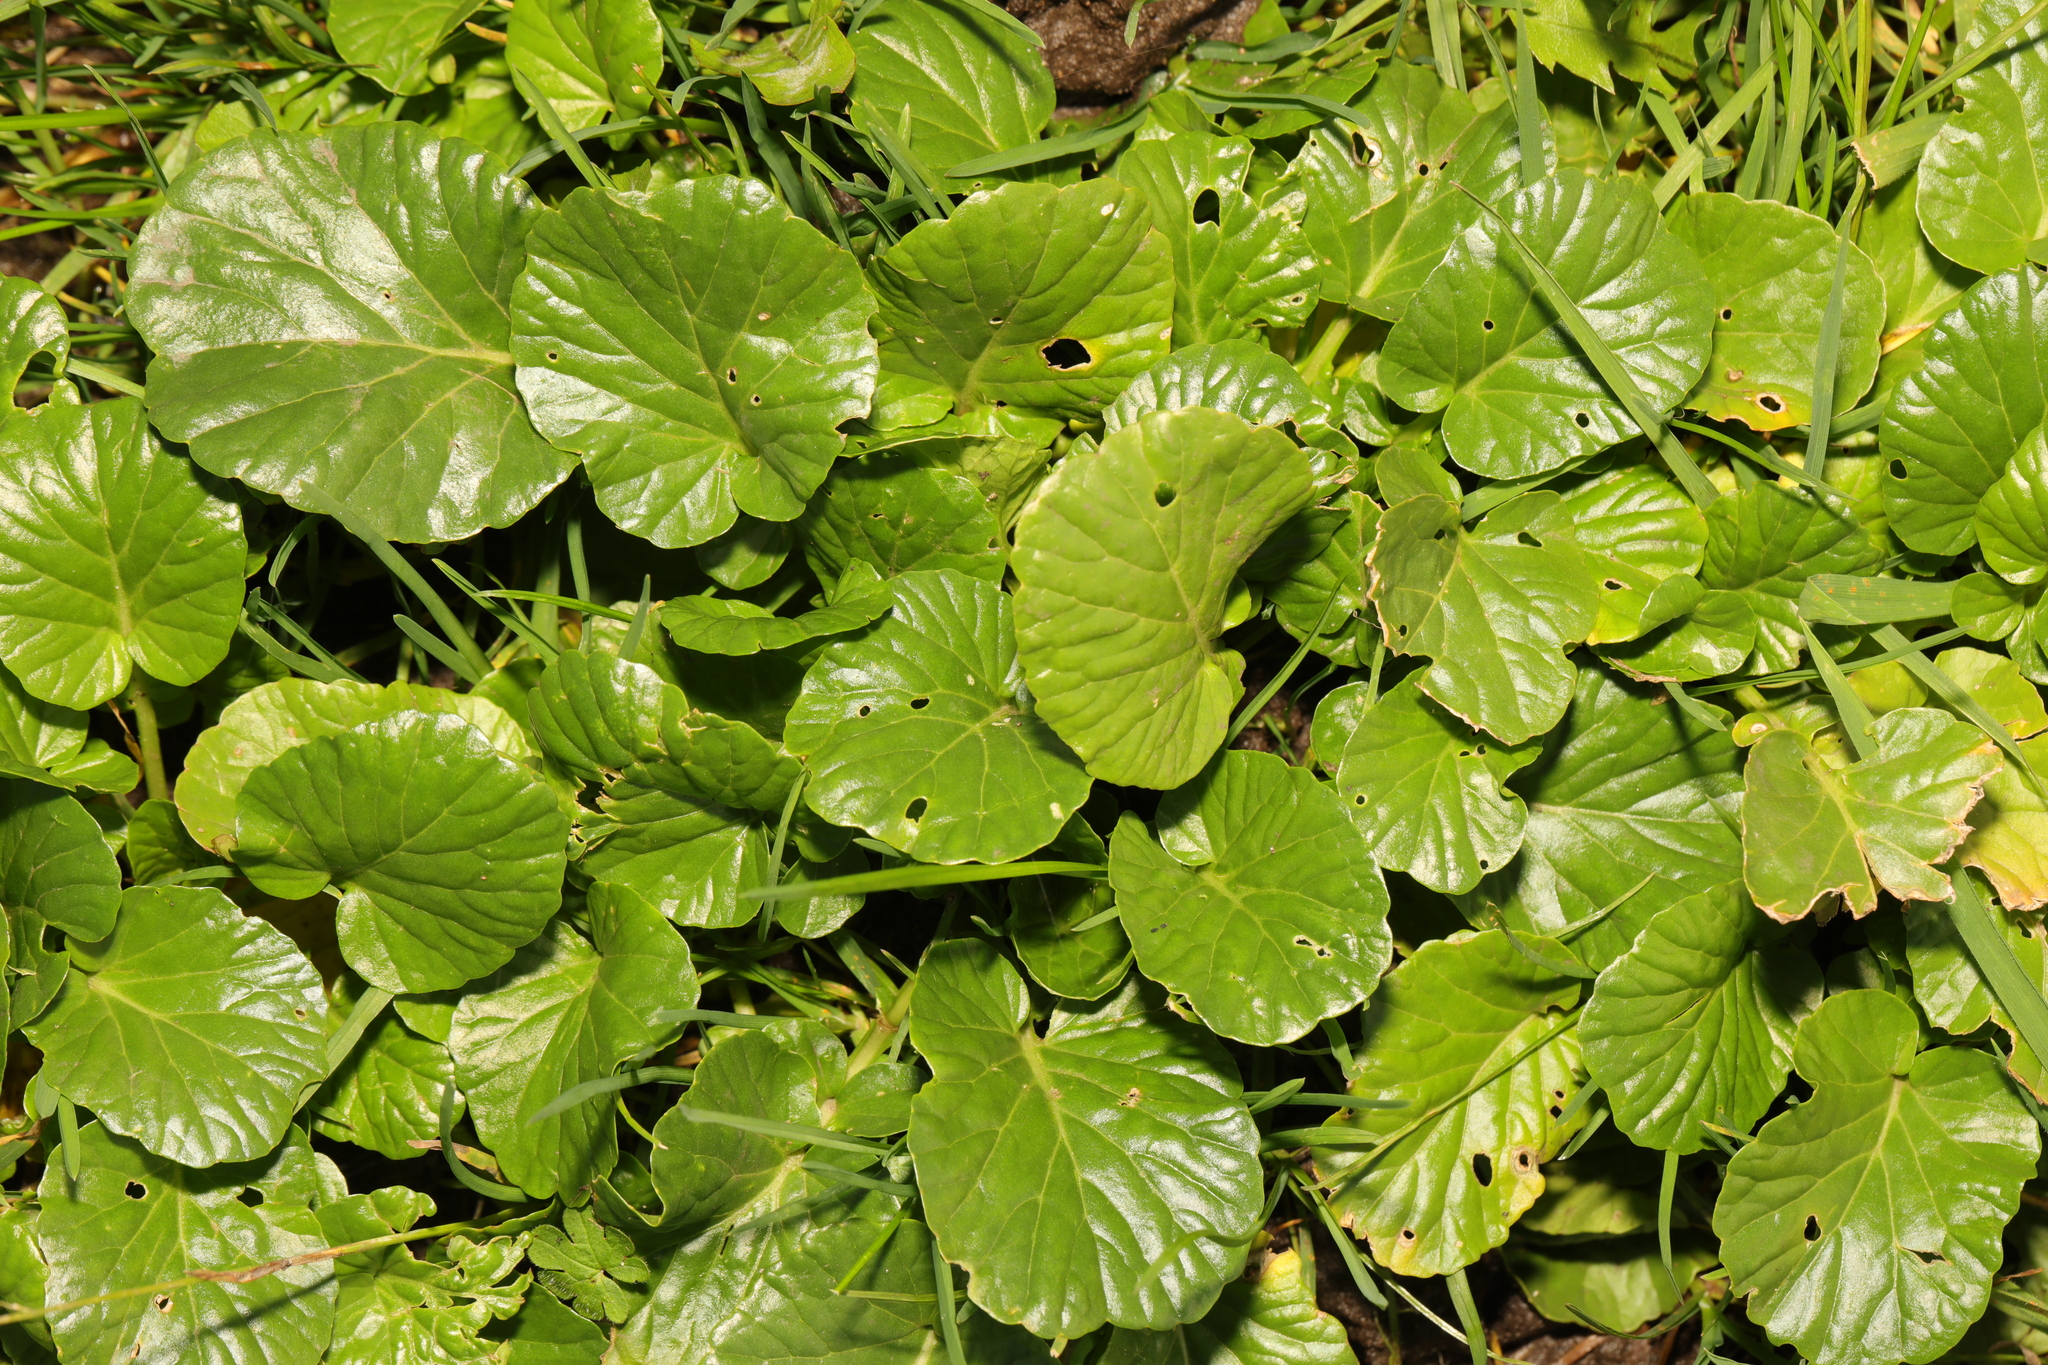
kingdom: Plantae
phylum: Tracheophyta
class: Magnoliopsida
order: Brassicales
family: Brassicaceae
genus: Barbarea
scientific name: Barbarea vulgaris
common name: Cressy-greens
